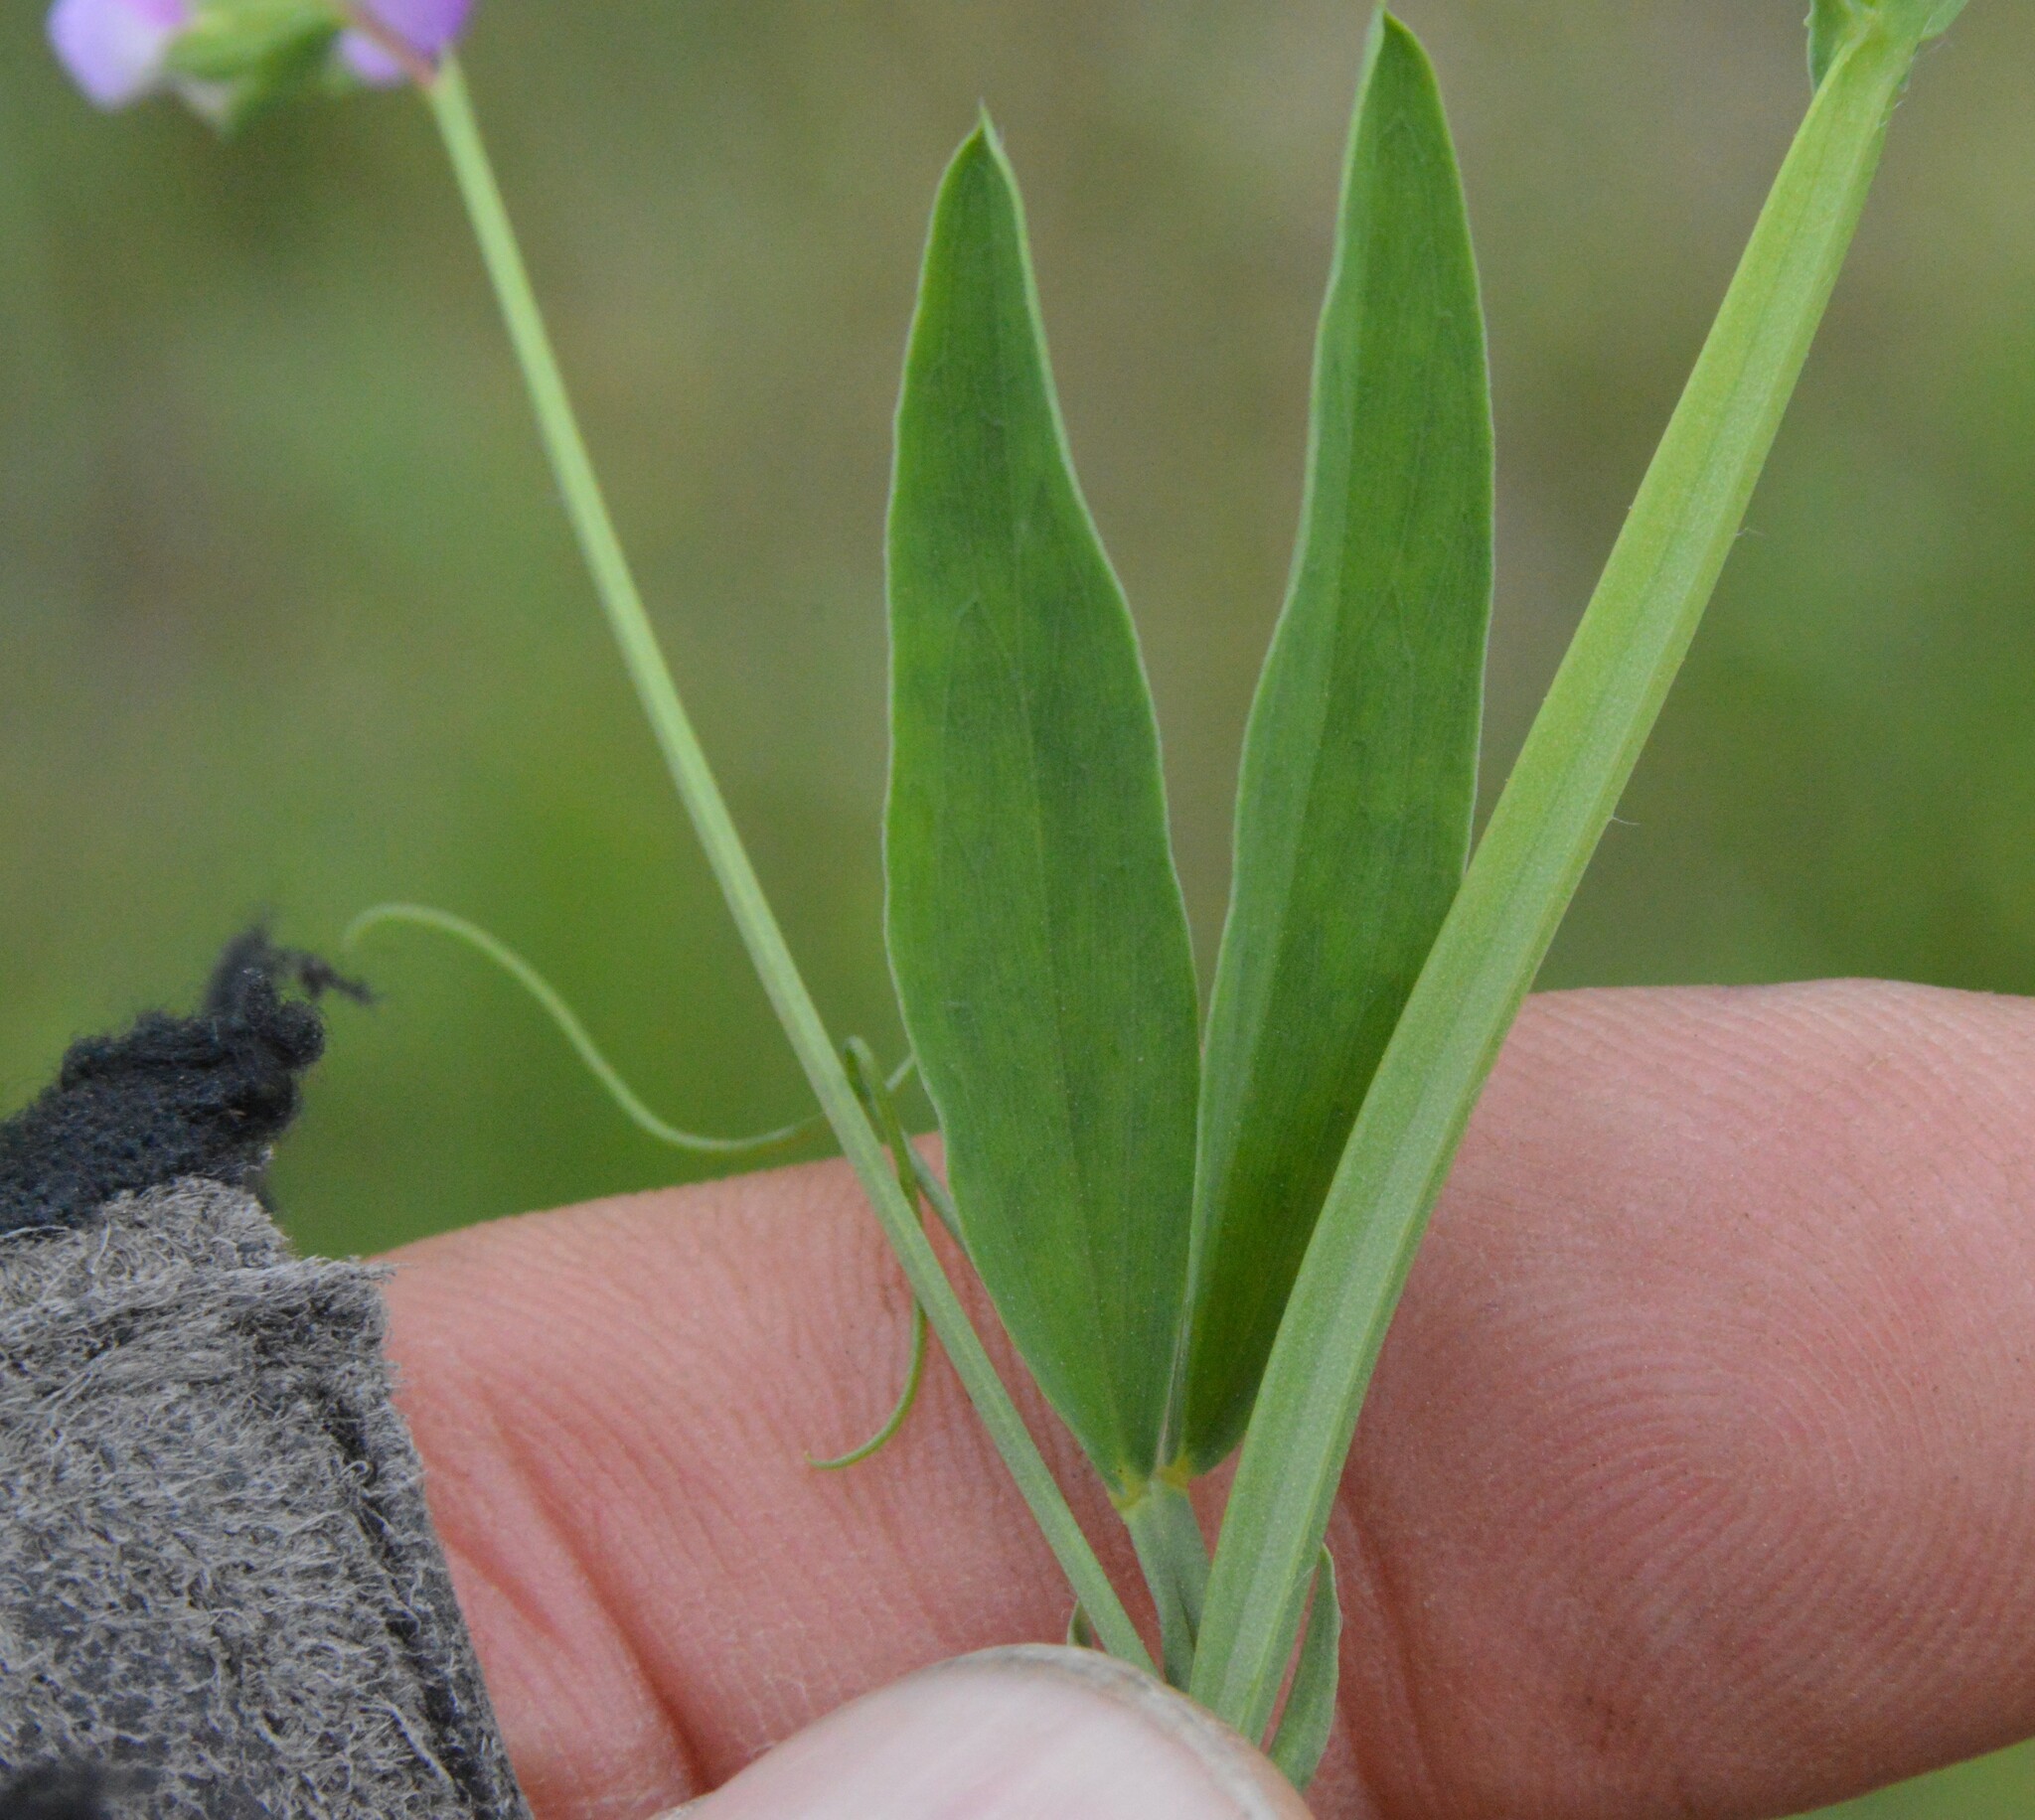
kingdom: Plantae
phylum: Tracheophyta
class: Magnoliopsida
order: Fabales
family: Fabaceae
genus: Lathyrus
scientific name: Lathyrus hirsutus
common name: Hairy vetchling
